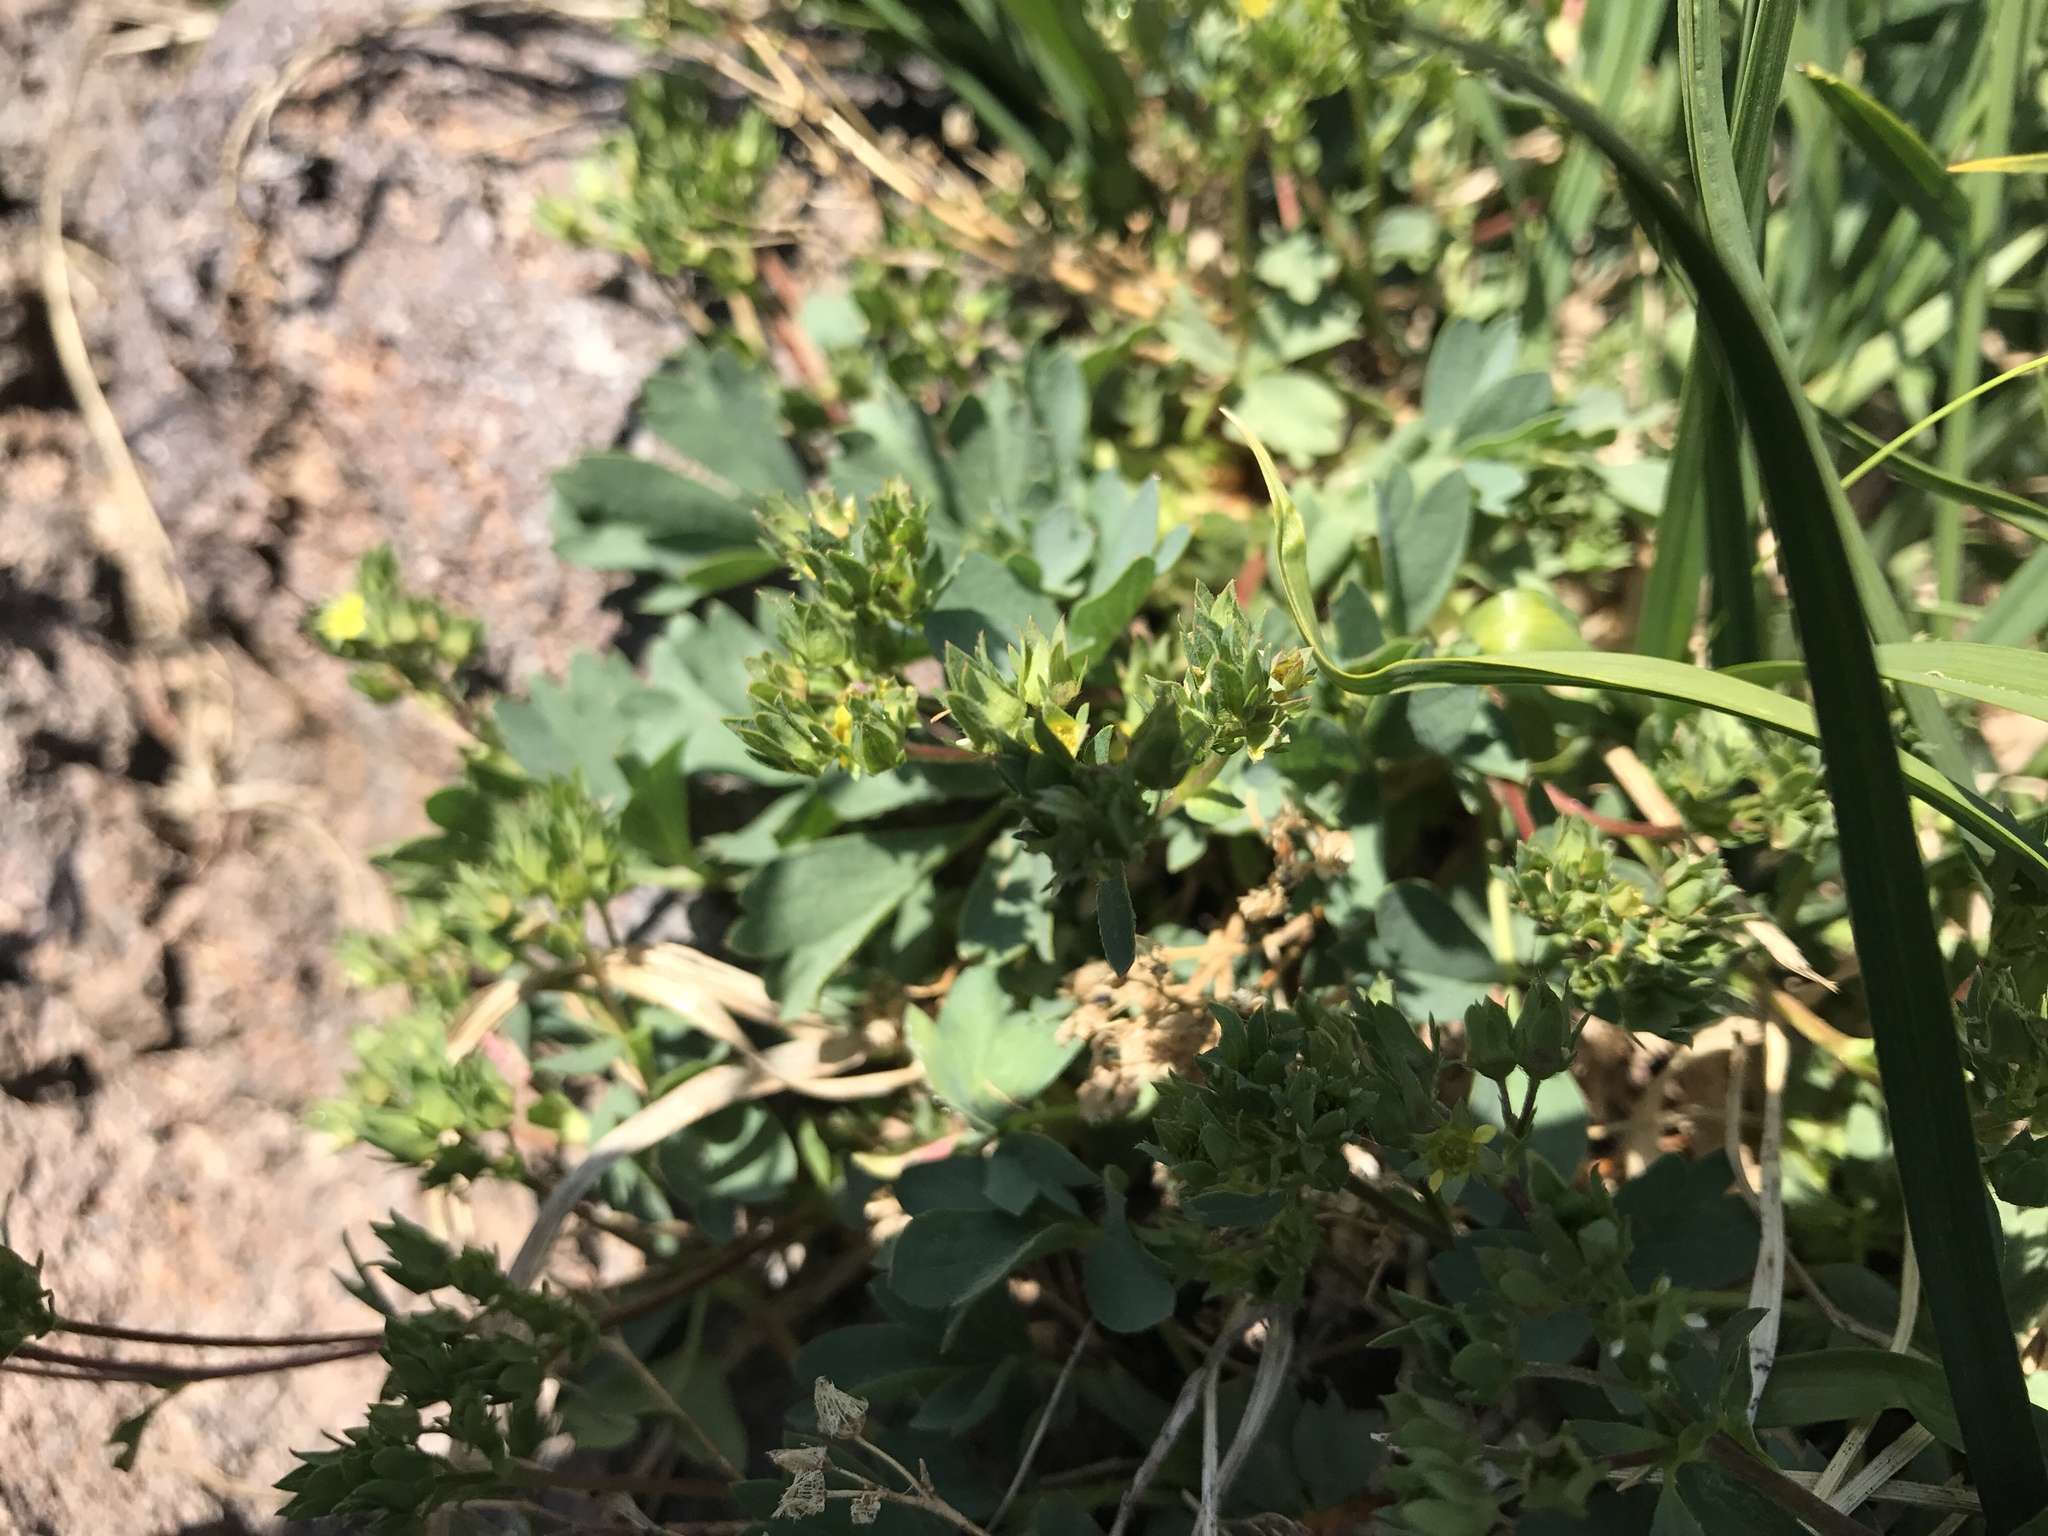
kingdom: Plantae
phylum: Tracheophyta
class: Magnoliopsida
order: Rosales
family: Rosaceae
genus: Sibbaldia
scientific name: Sibbaldia procumbens
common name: Creeping sibbaldia
